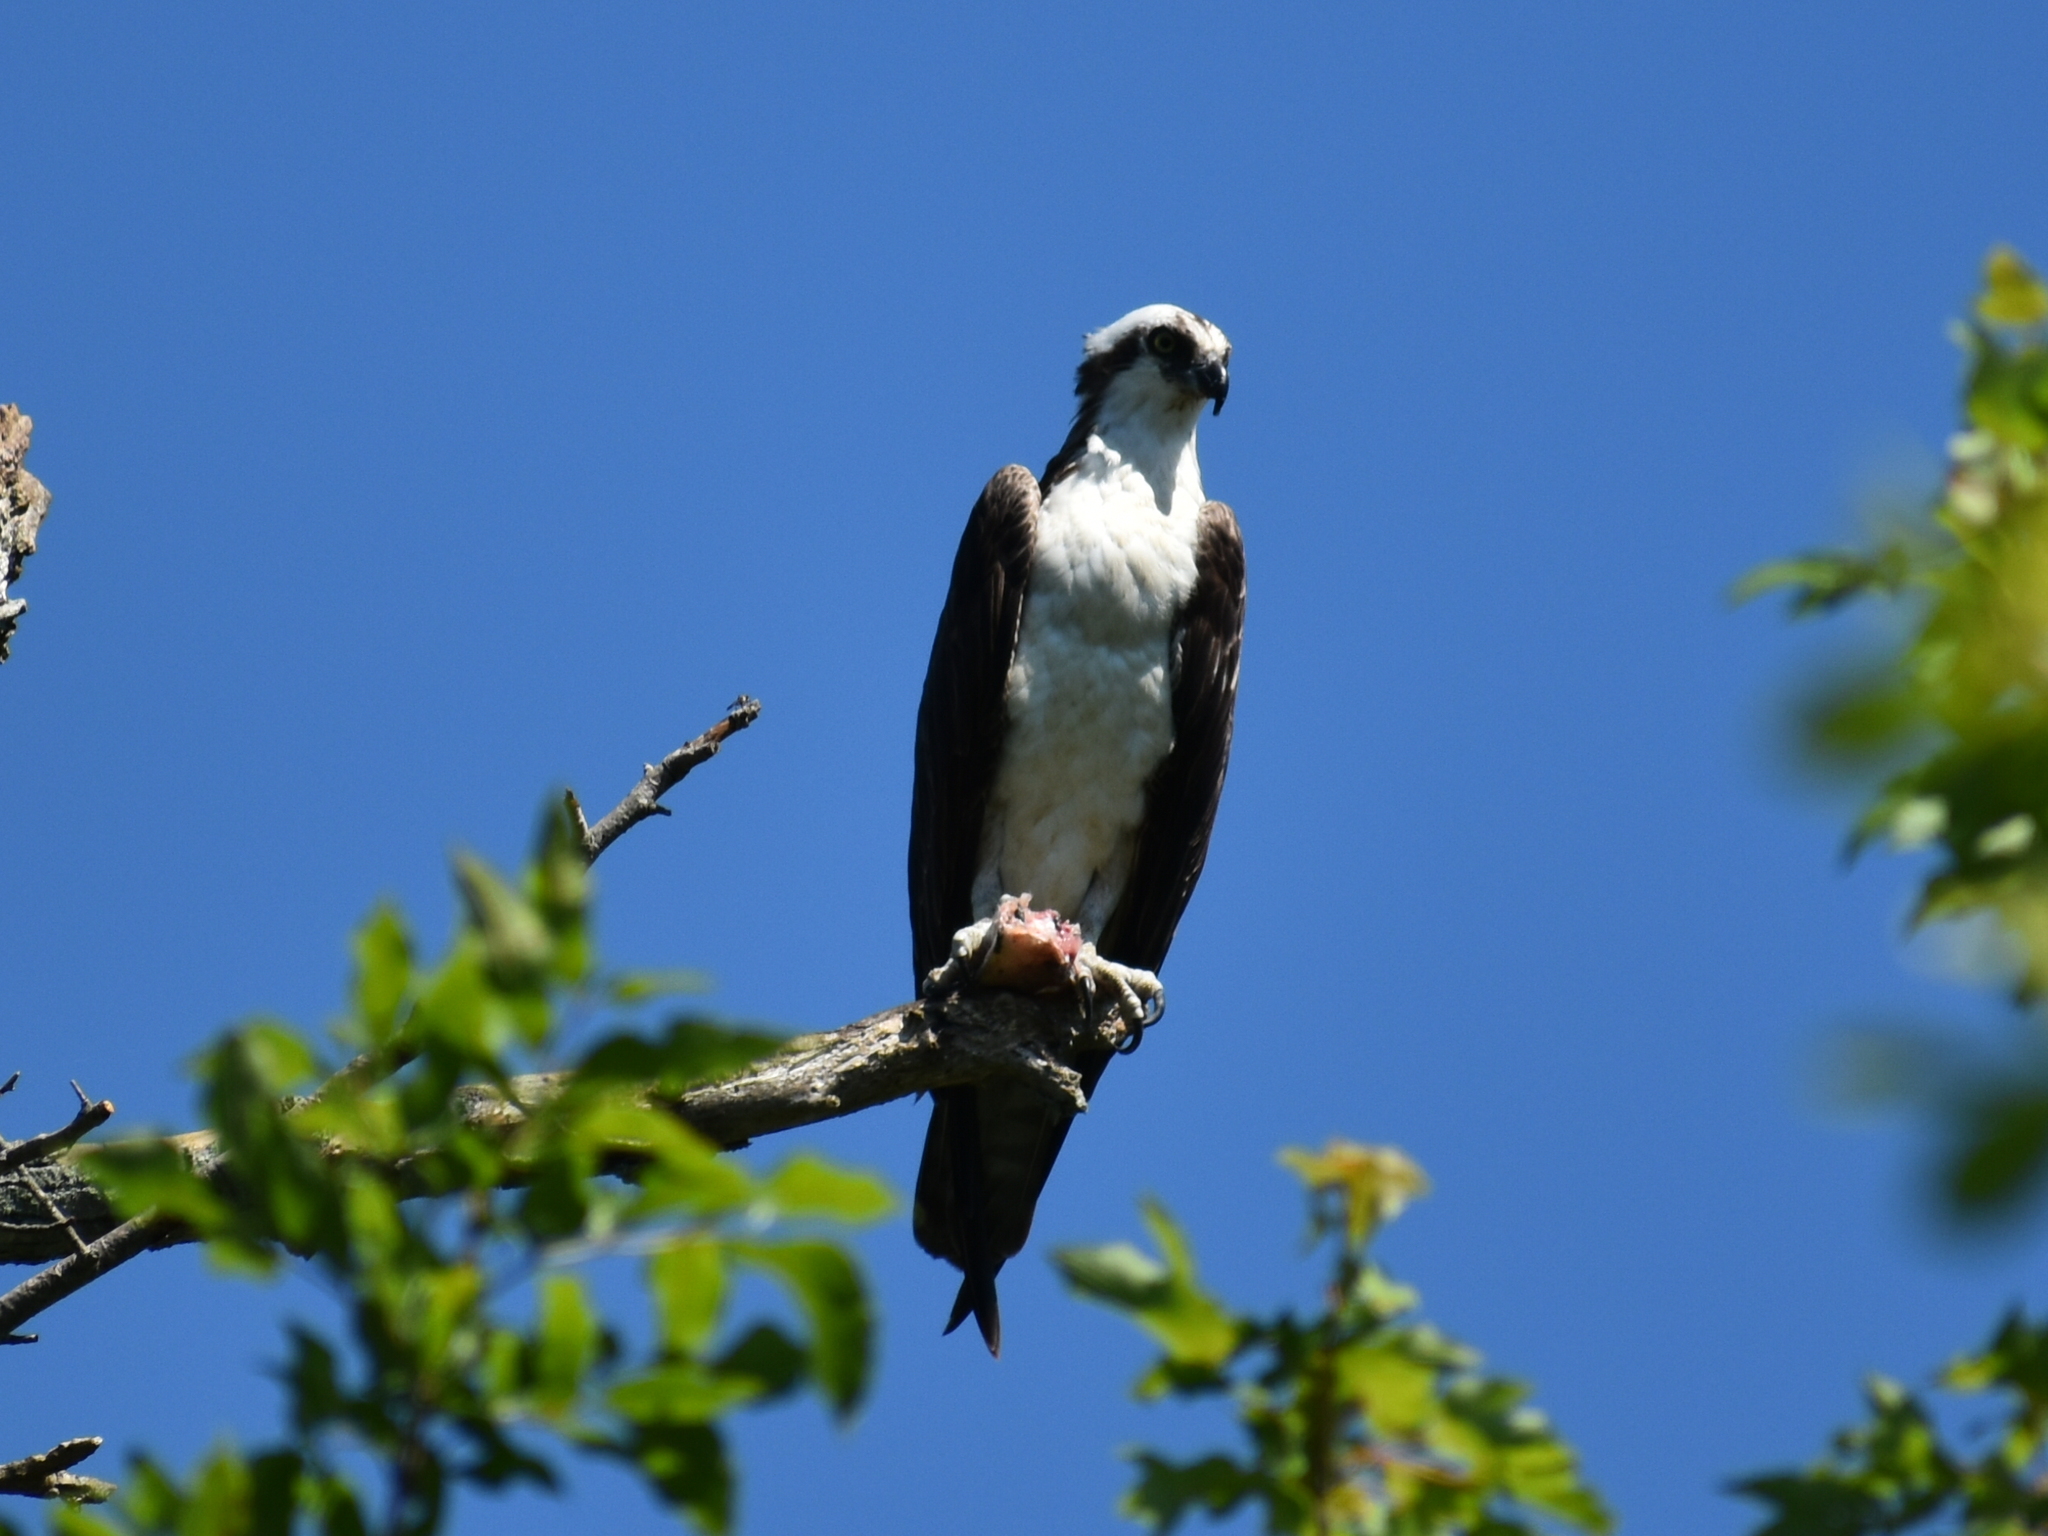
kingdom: Animalia
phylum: Chordata
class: Aves
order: Accipitriformes
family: Pandionidae
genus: Pandion
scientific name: Pandion haliaetus
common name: Osprey
